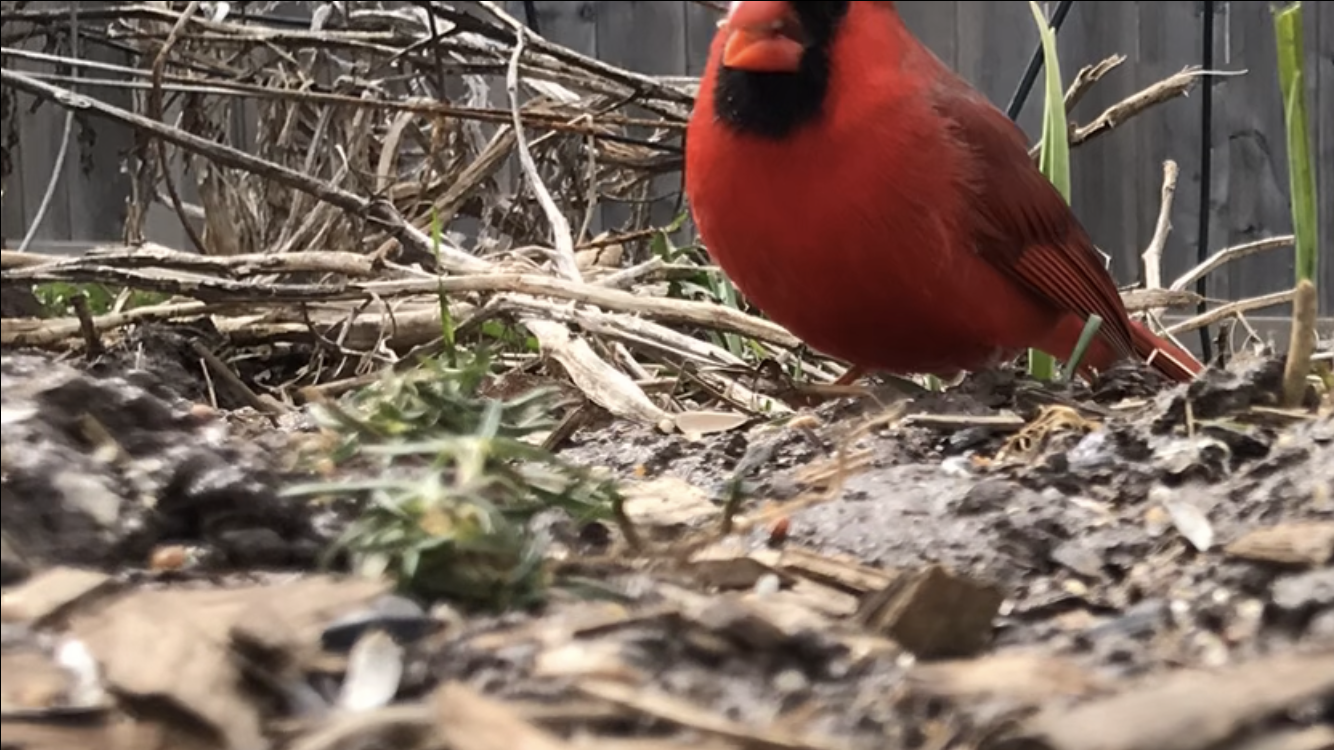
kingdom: Animalia
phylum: Chordata
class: Aves
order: Passeriformes
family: Cardinalidae
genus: Cardinalis
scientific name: Cardinalis cardinalis
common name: Northern cardinal
